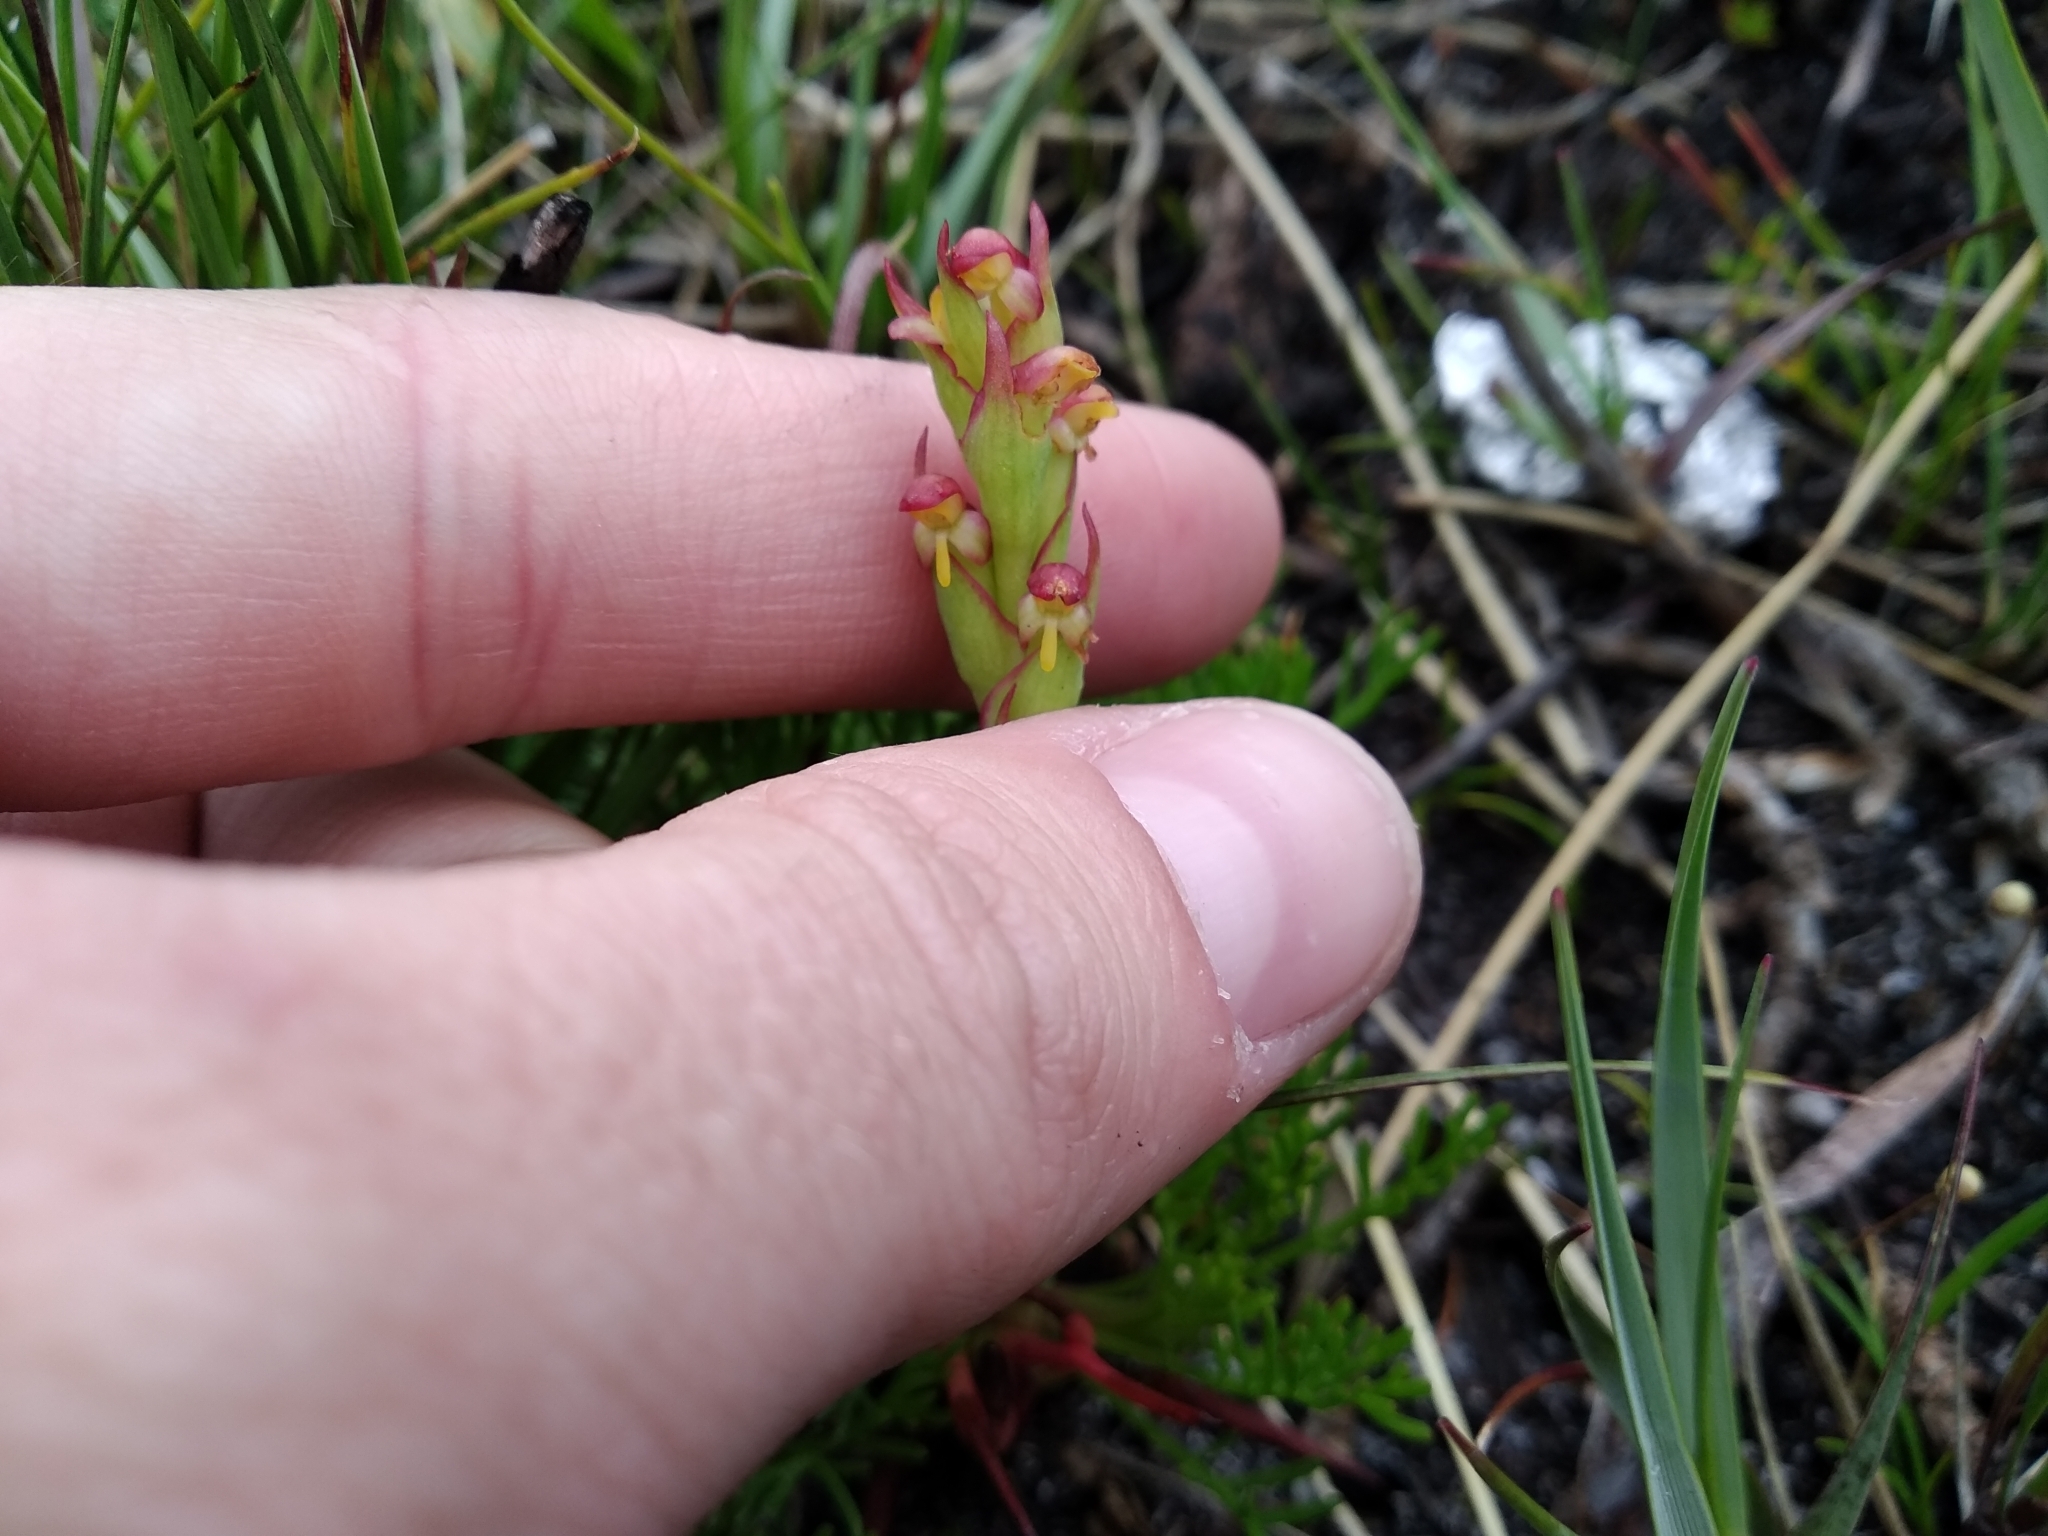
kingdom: Plantae
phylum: Tracheophyta
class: Liliopsida
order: Asparagales
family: Orchidaceae
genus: Disa
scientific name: Disa bracteata
